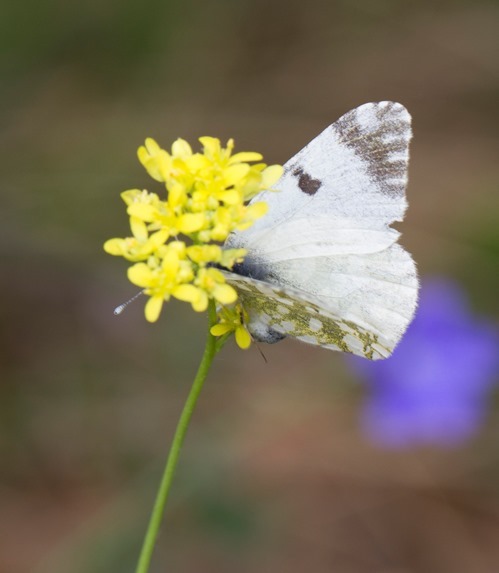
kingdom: Animalia
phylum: Arthropoda
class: Insecta
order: Lepidoptera
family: Pieridae
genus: Euchloe
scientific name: Euchloe crameri
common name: Western dappled white
